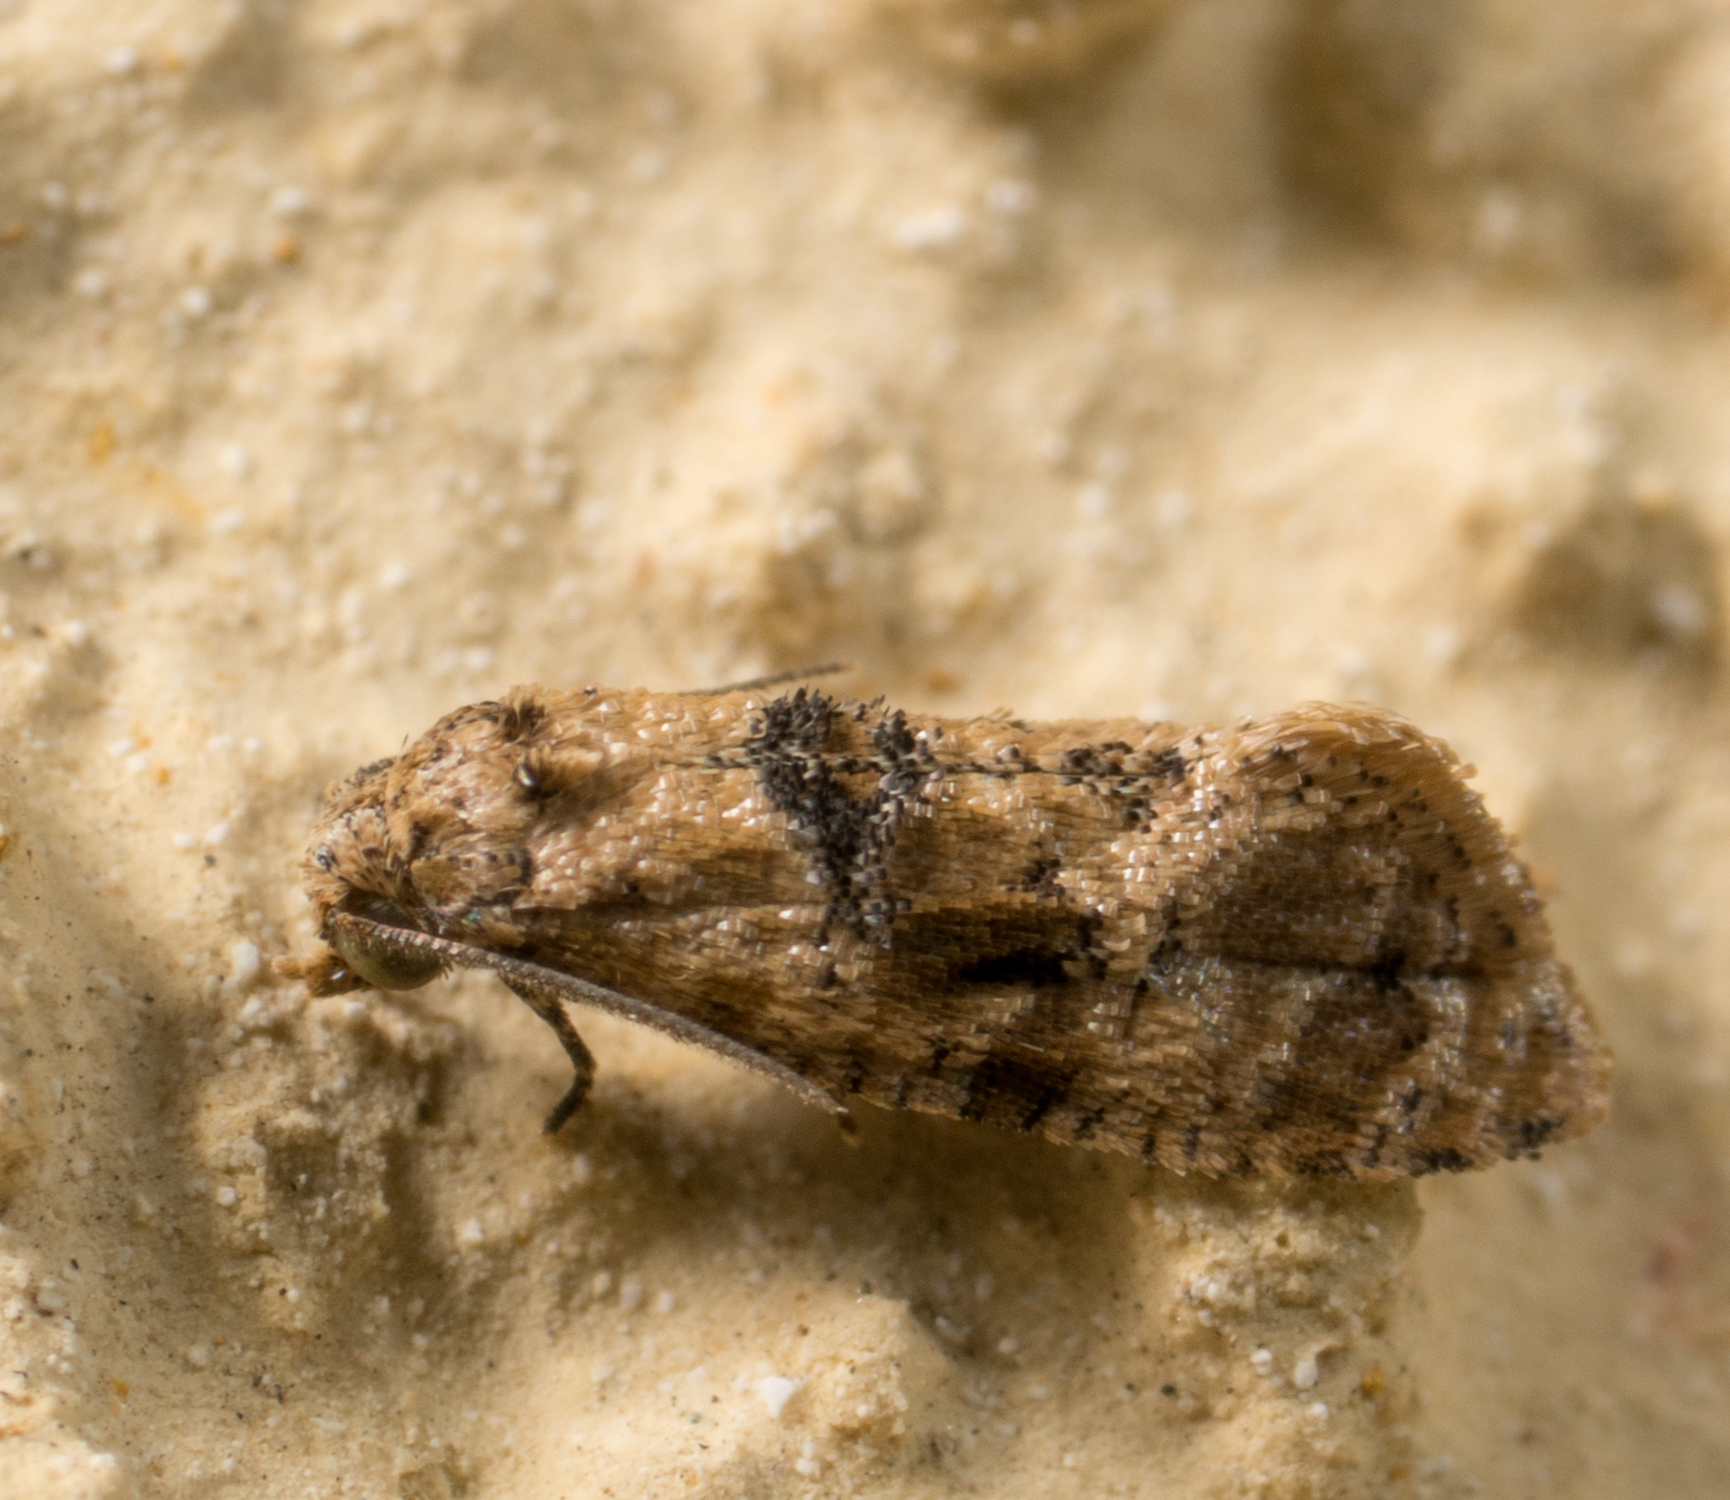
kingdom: Animalia
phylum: Arthropoda
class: Insecta
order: Lepidoptera
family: Tortricidae
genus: Lorita
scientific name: Lorita scarificata
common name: Chrysanthemum flower borer
